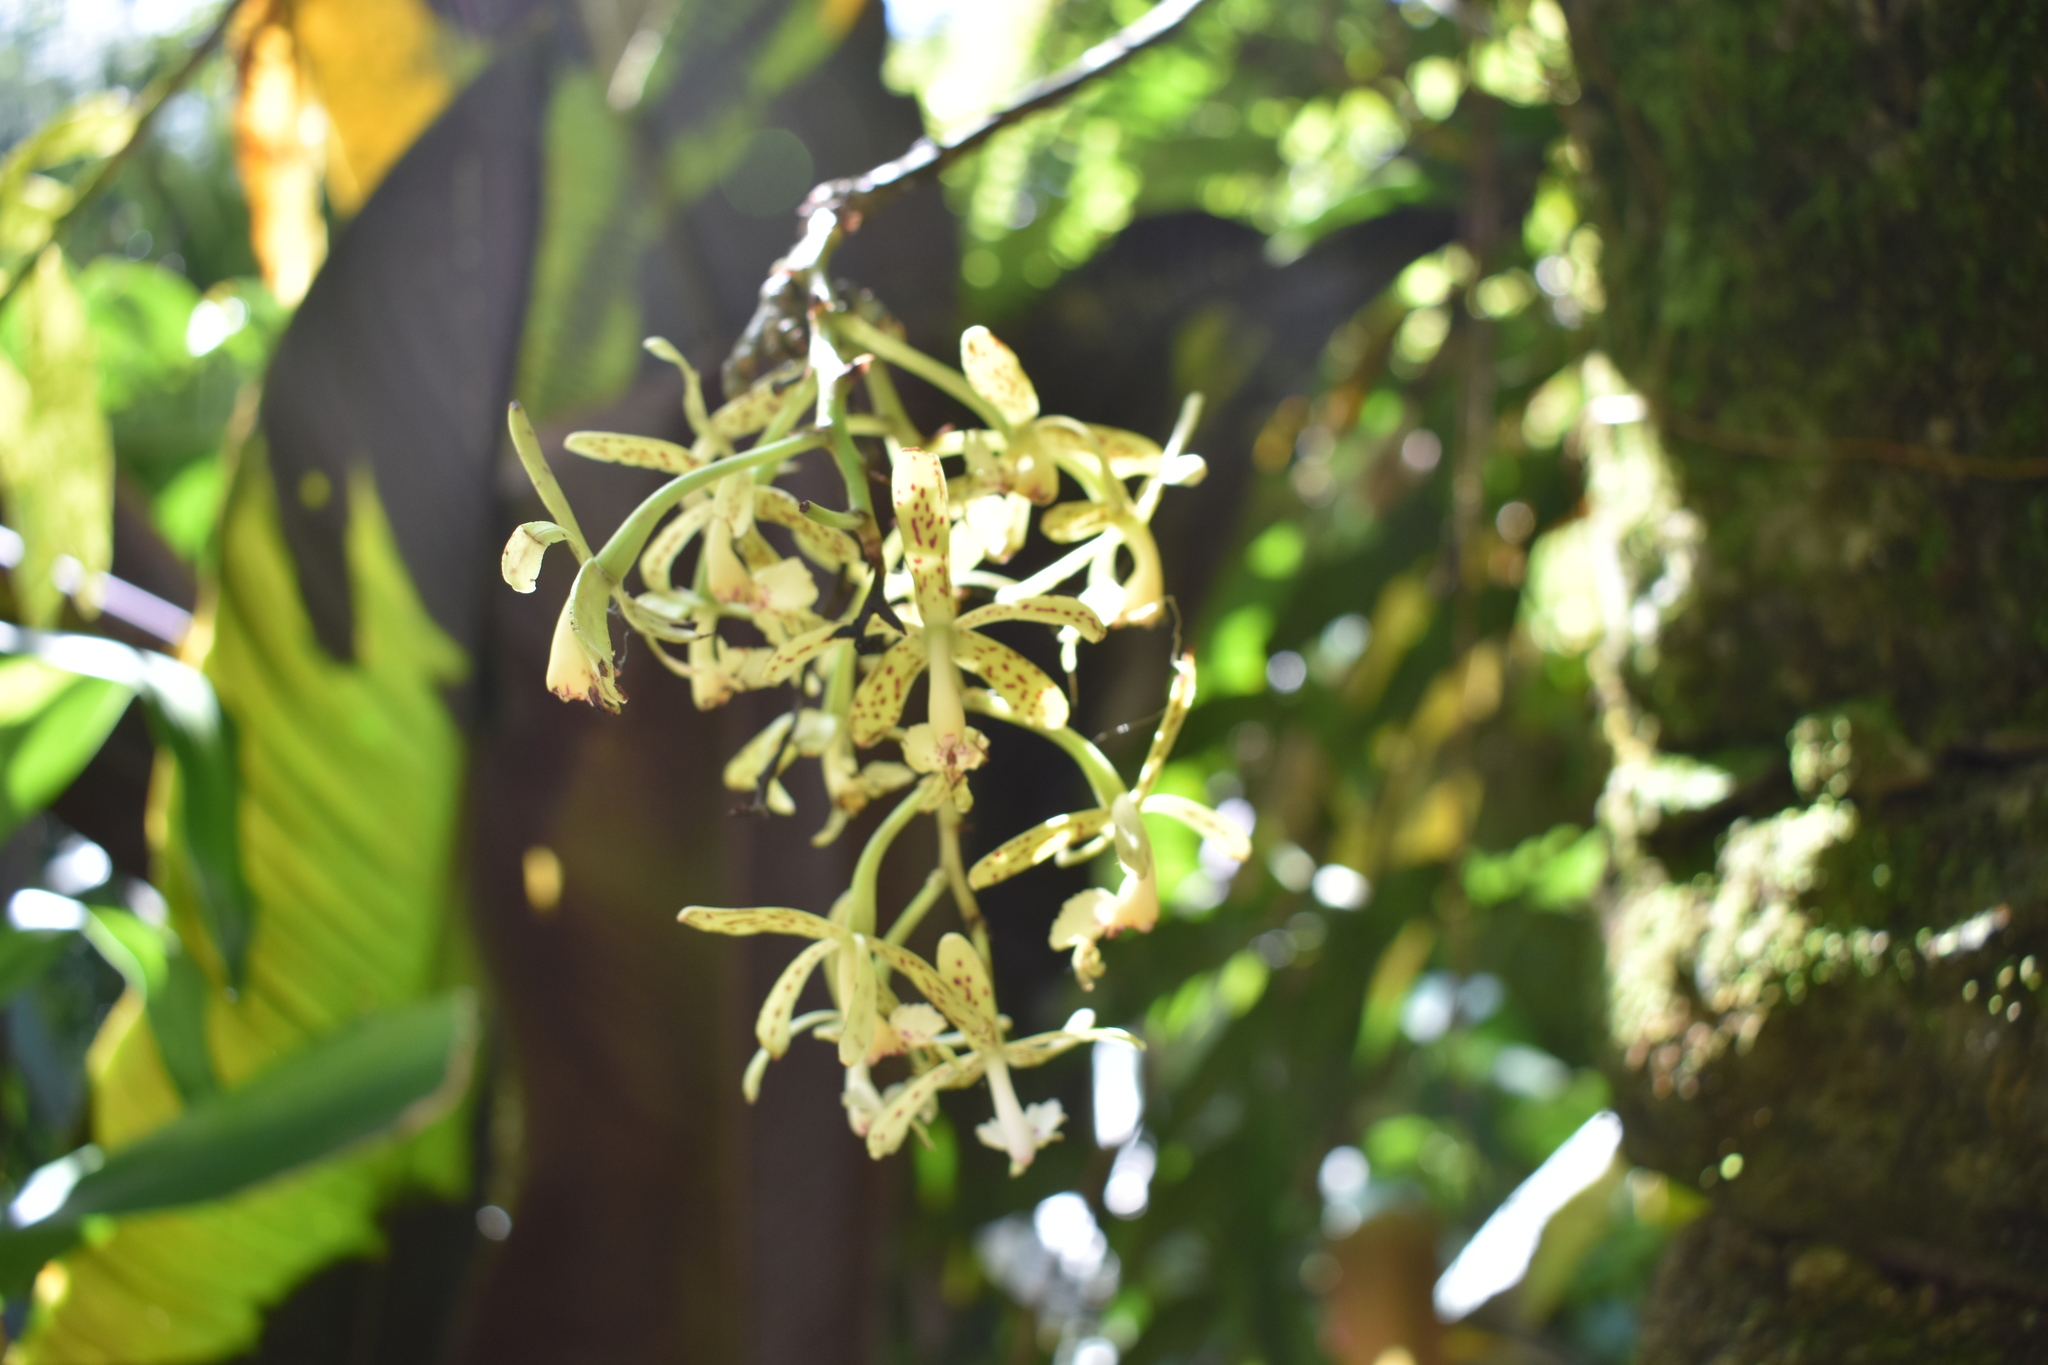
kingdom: Plantae
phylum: Tracheophyta
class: Liliopsida
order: Asparagales
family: Orchidaceae
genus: Epidendrum
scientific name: Epidendrum cristatum
